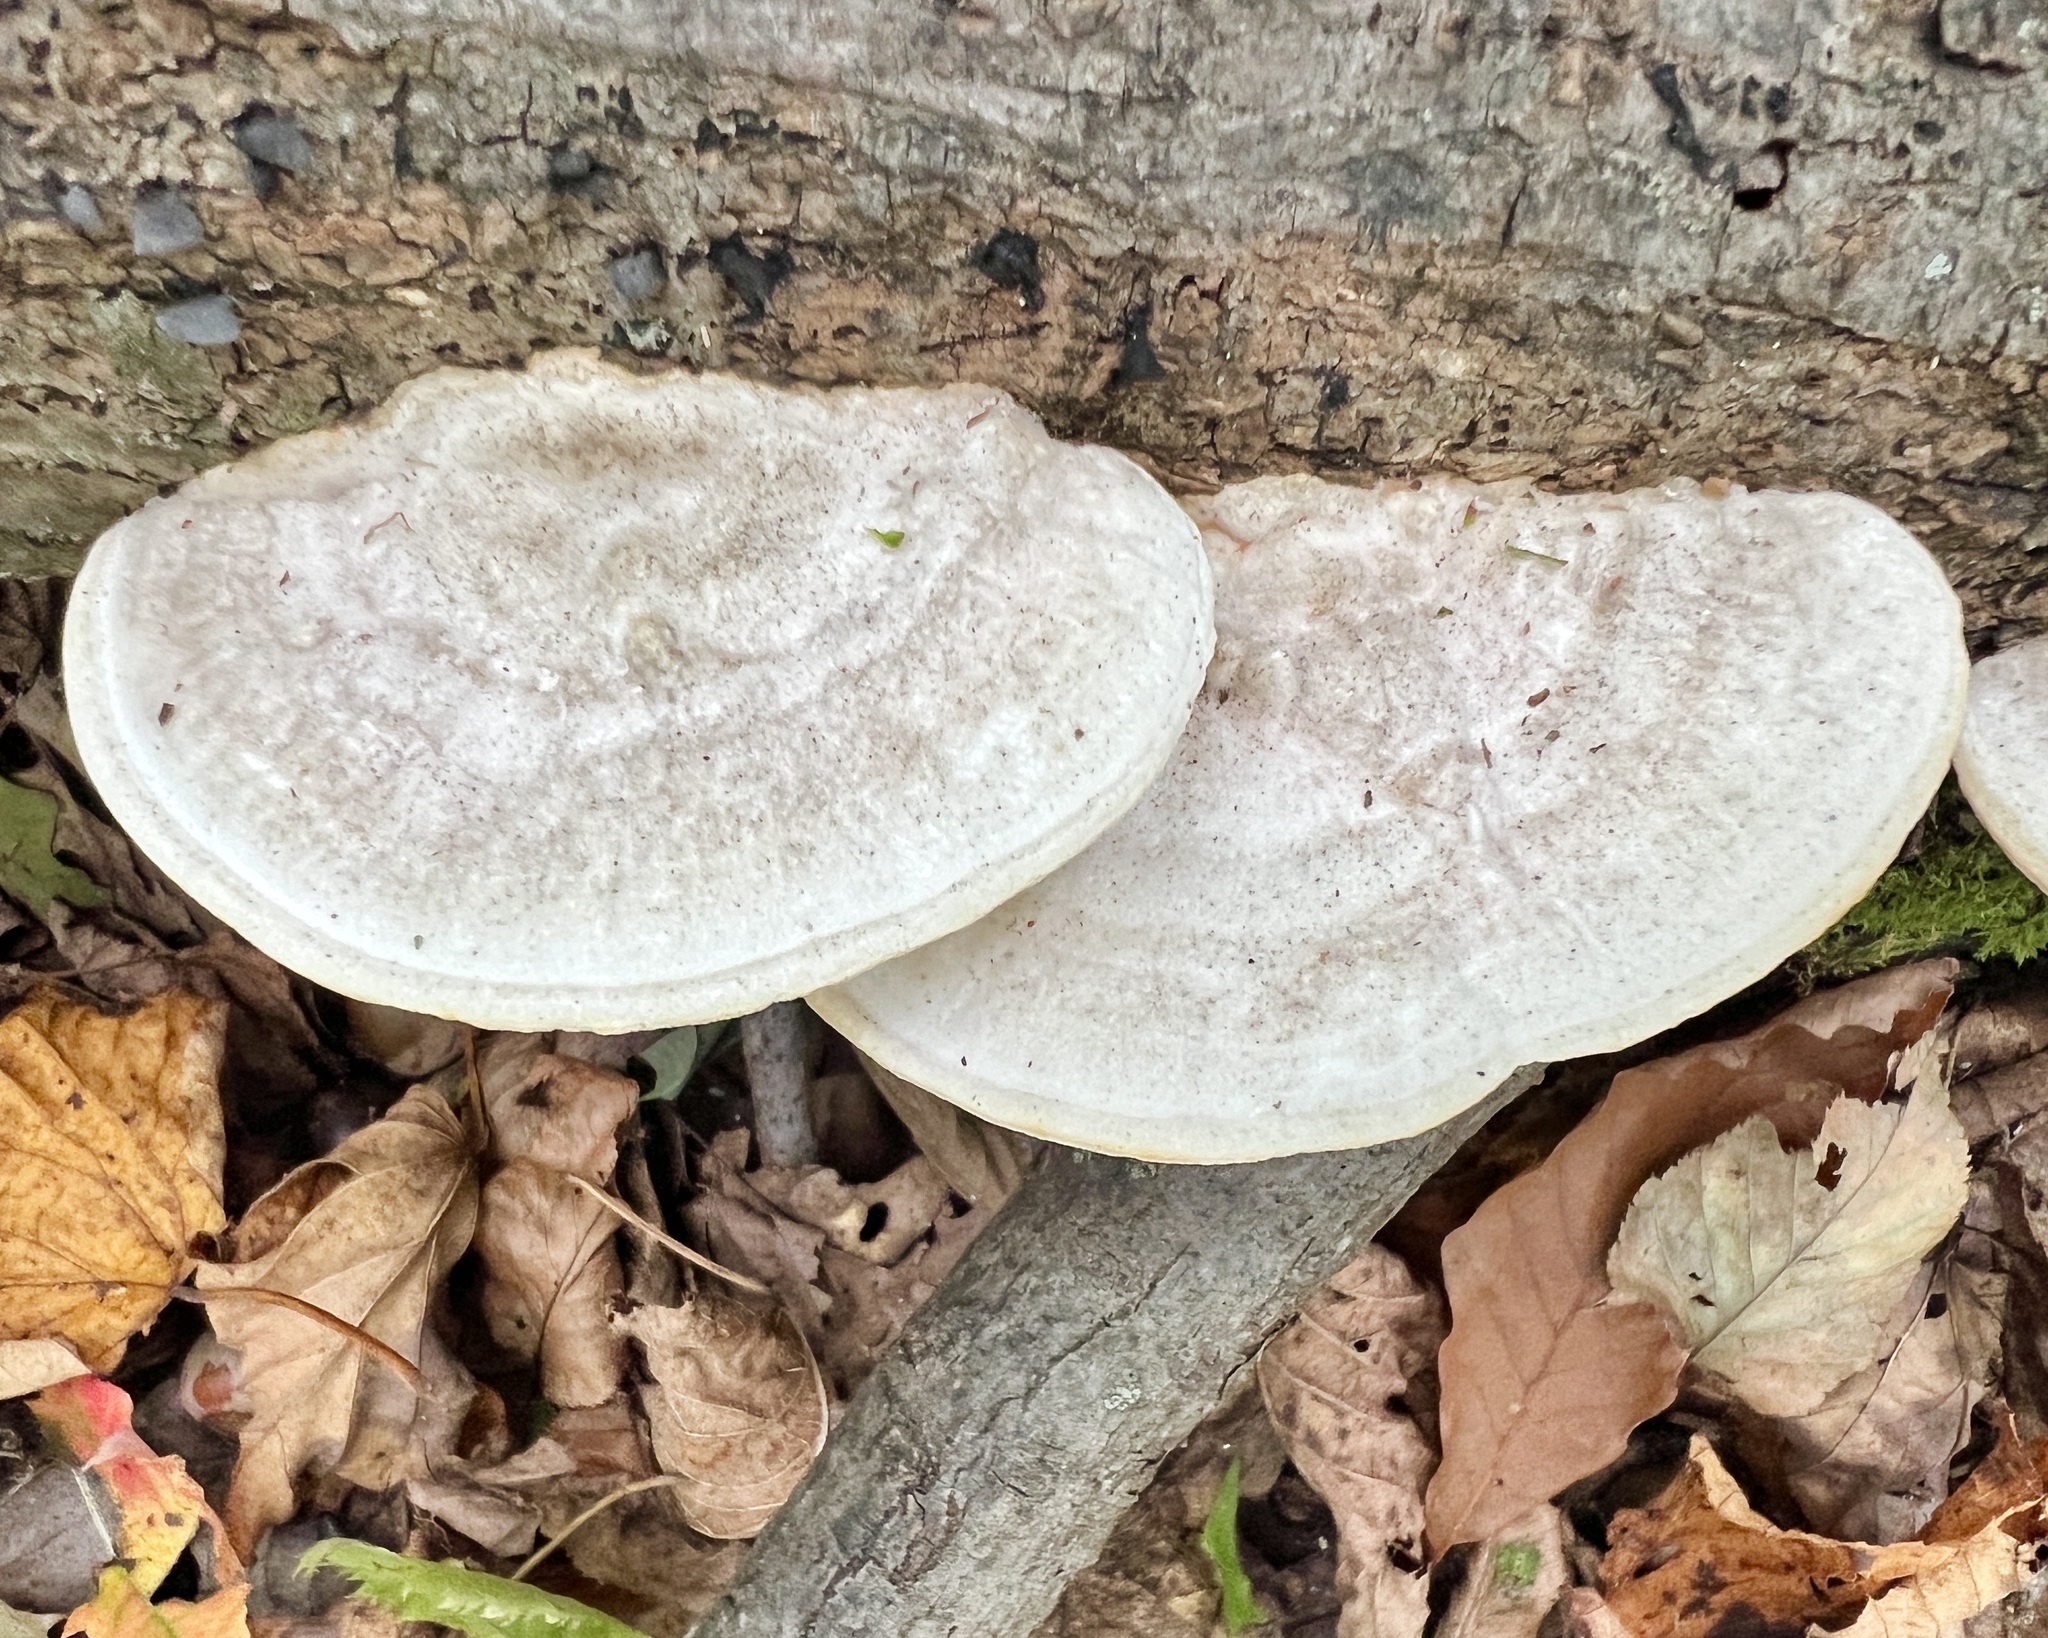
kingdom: Fungi
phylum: Basidiomycota
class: Agaricomycetes
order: Polyporales
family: Polyporaceae
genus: Trametes
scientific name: Trametes gibbosa
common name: Lumpy bracket
